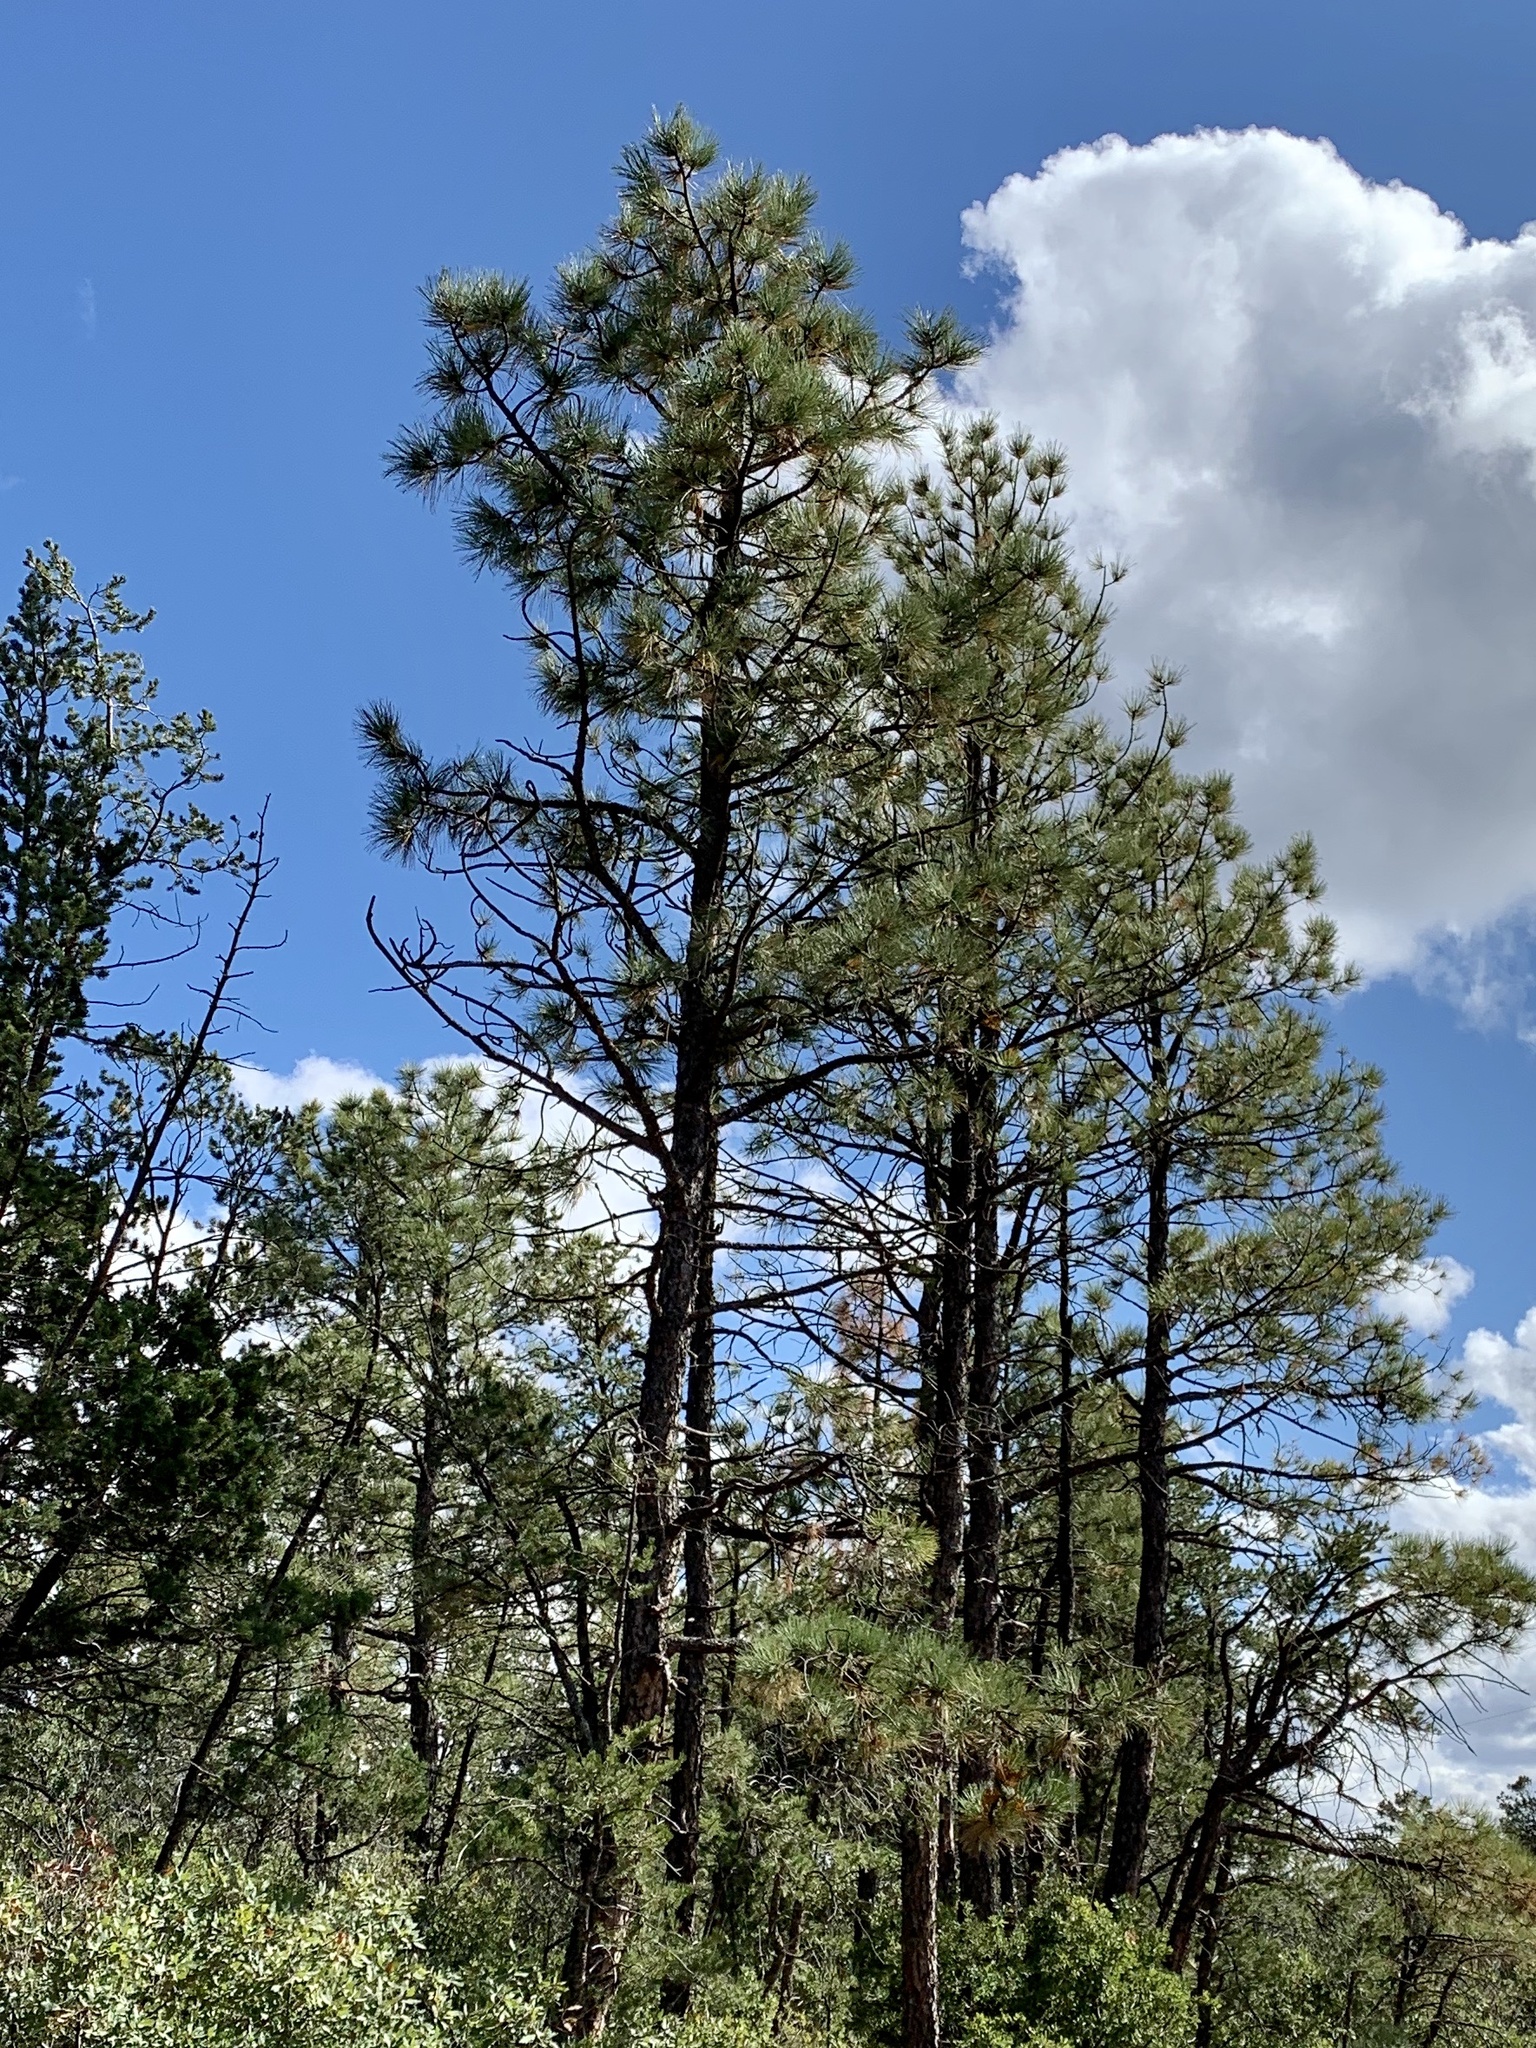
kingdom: Plantae
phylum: Tracheophyta
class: Pinopsida
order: Pinales
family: Pinaceae
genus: Pinus
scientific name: Pinus ponderosa
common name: Western yellow-pine
